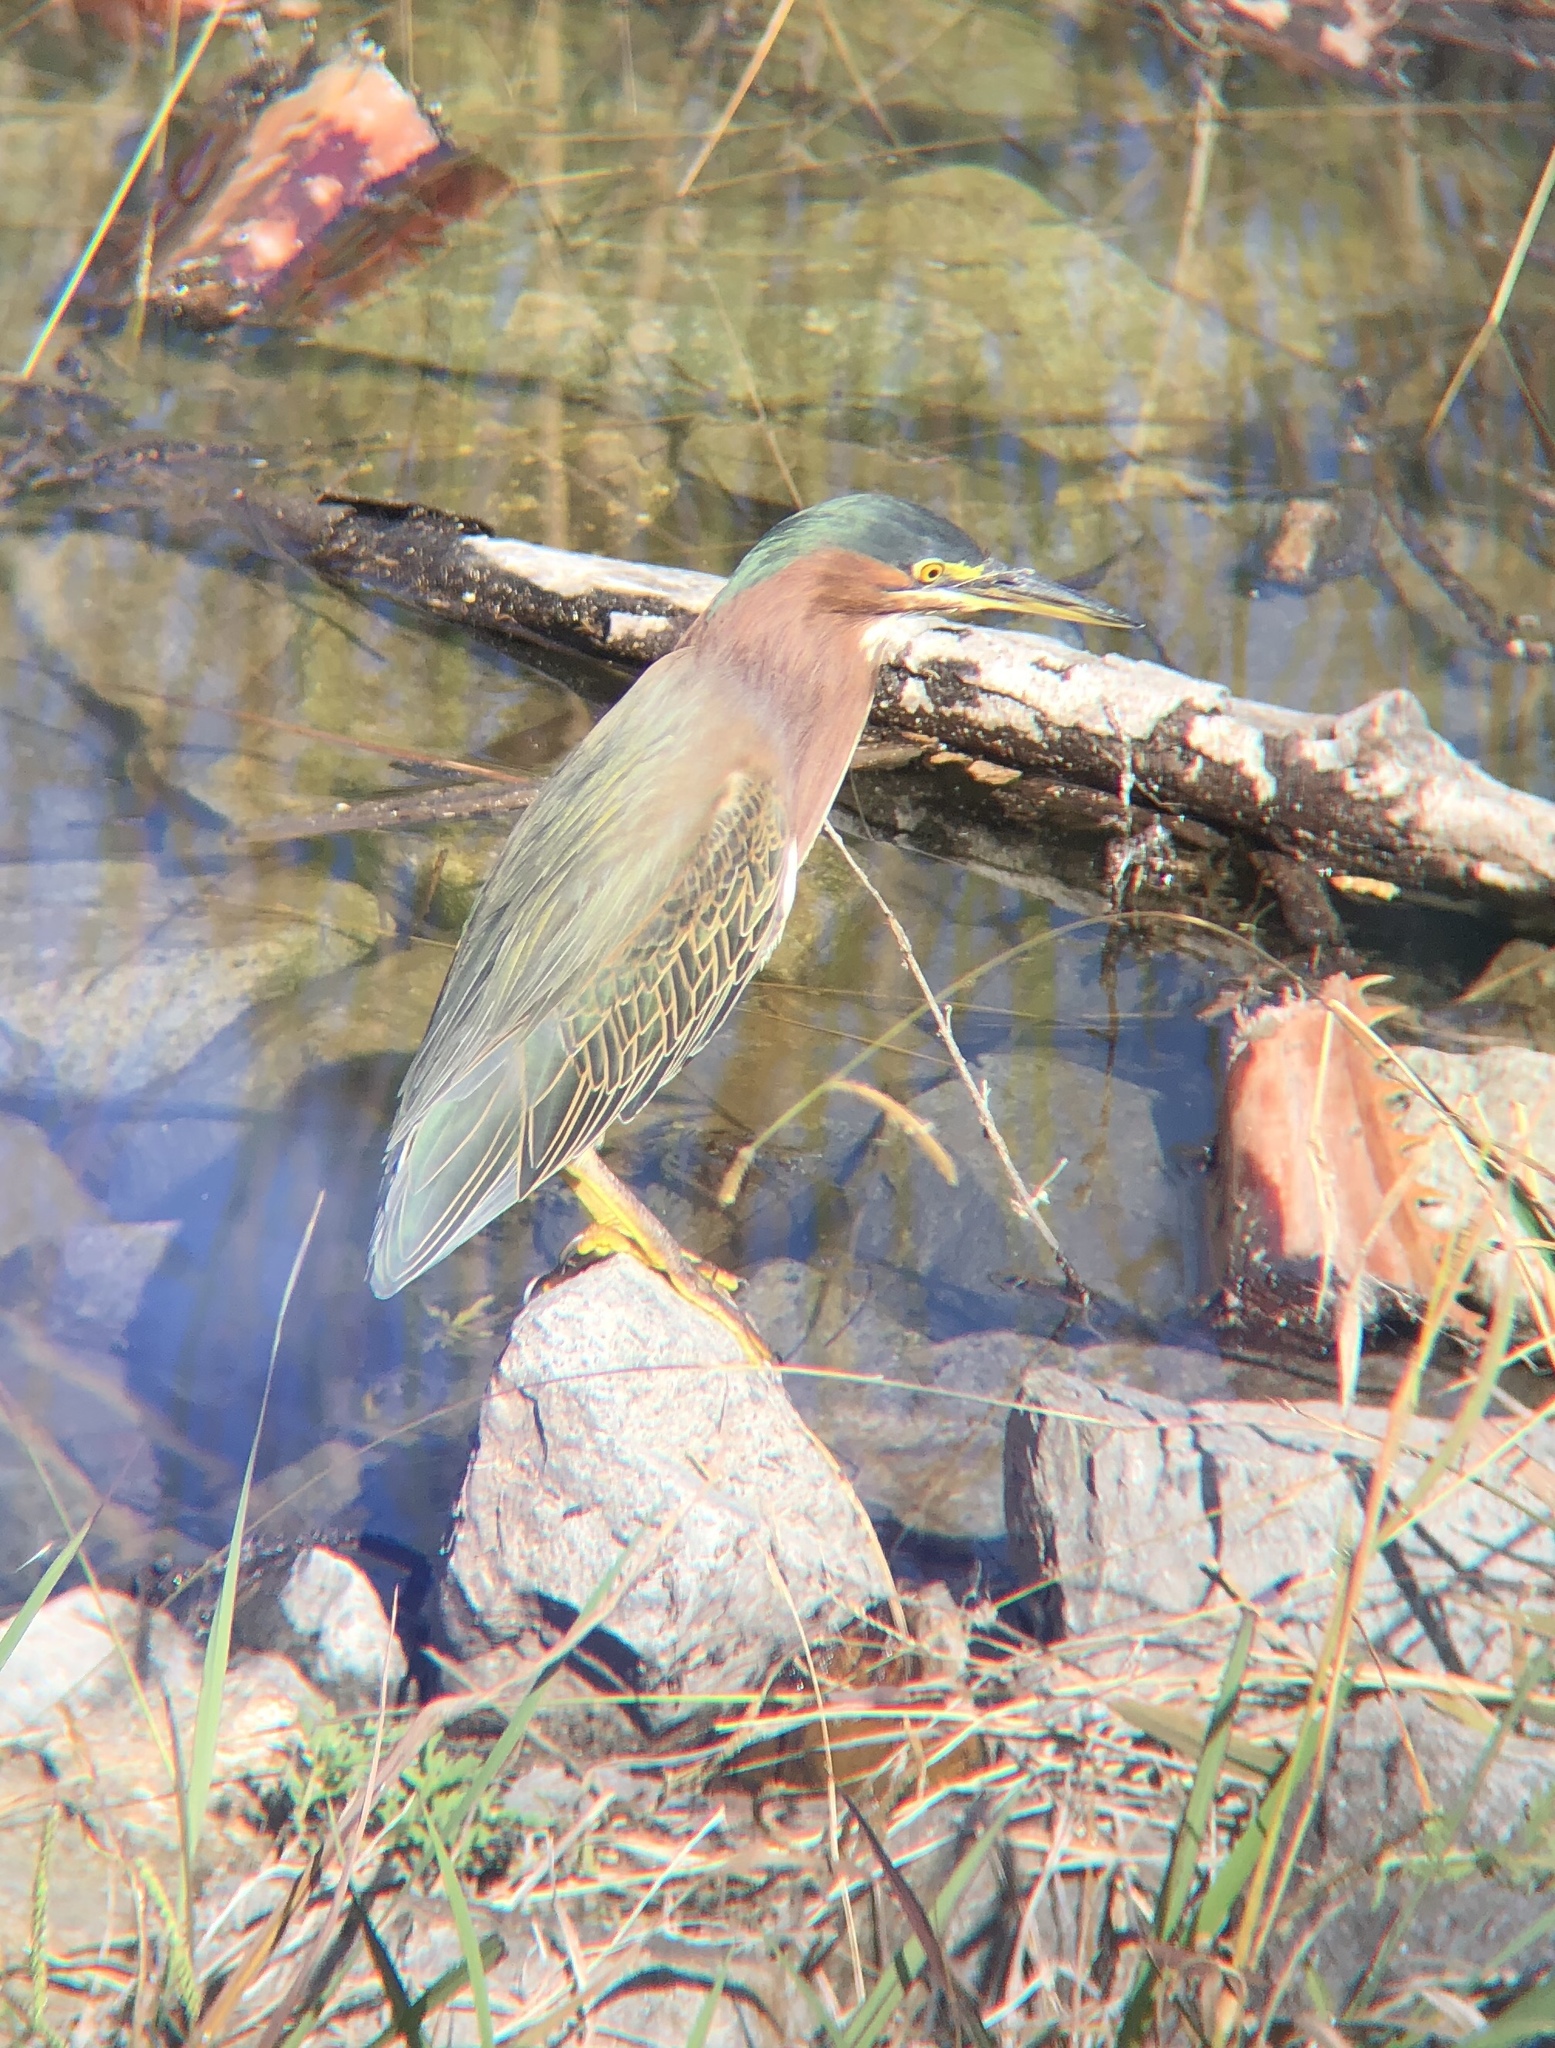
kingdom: Animalia
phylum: Chordata
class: Aves
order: Pelecaniformes
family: Ardeidae
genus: Butorides
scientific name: Butorides virescens
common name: Green heron
